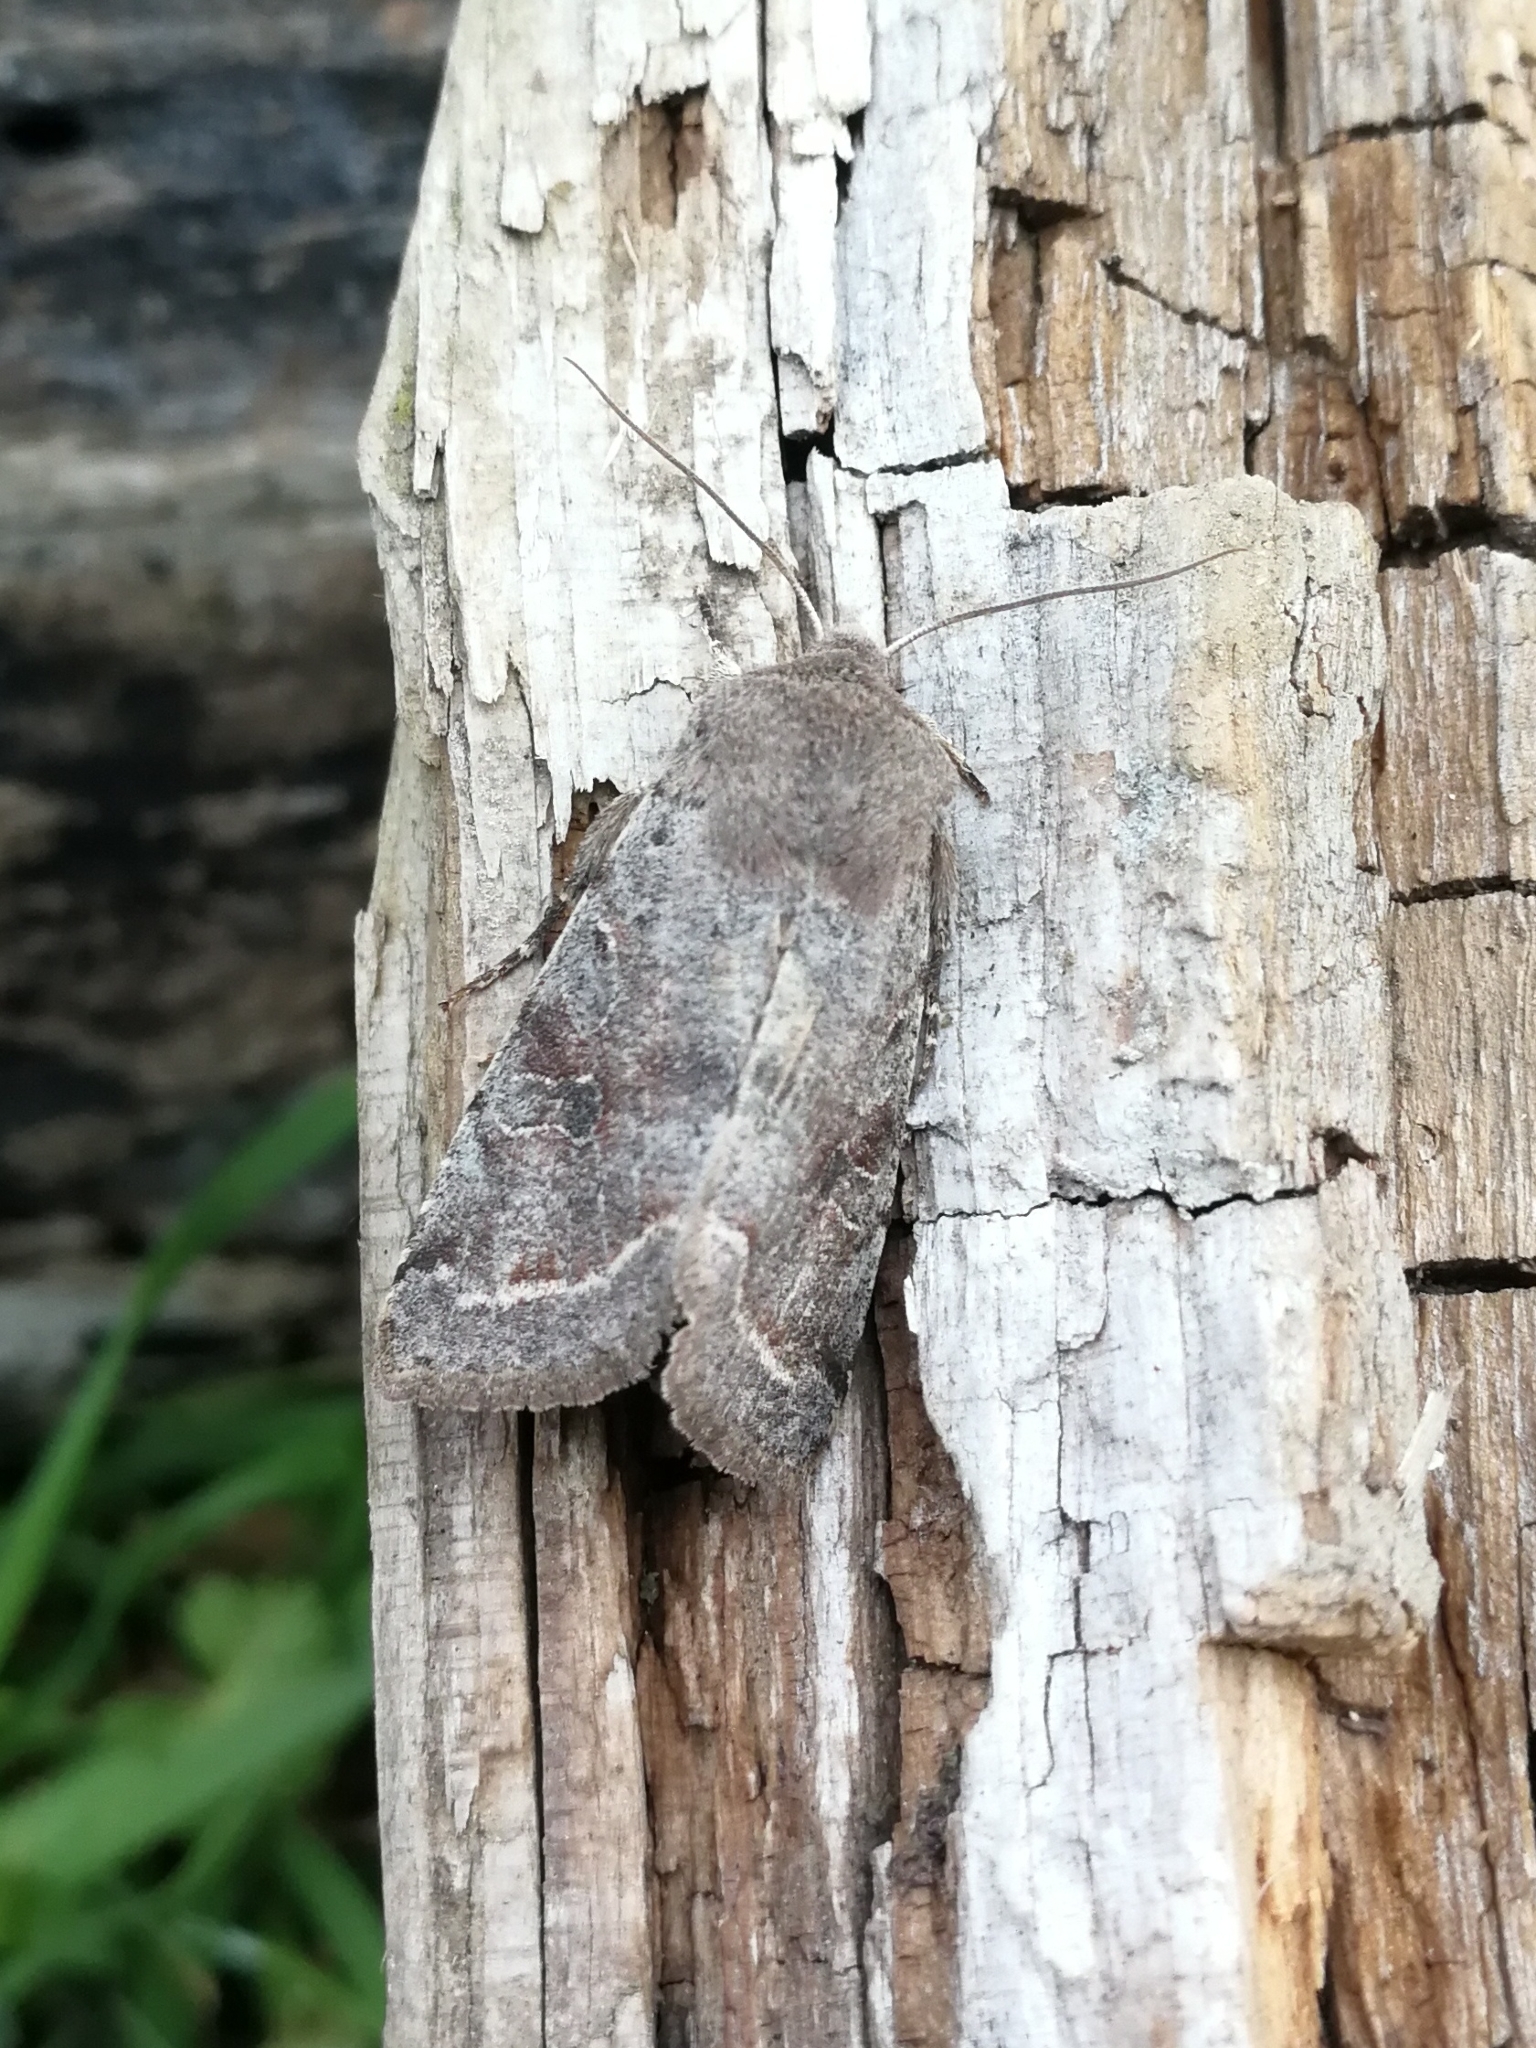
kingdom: Animalia
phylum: Arthropoda
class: Insecta
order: Lepidoptera
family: Noctuidae
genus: Orthosia
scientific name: Orthosia incerta
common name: Clouded drab
